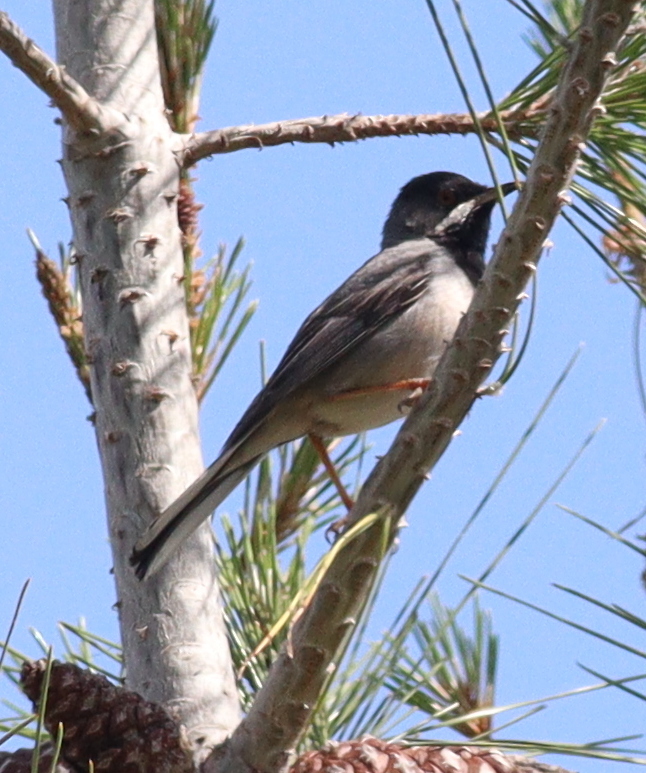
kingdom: Animalia
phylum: Chordata
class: Aves
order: Passeriformes
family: Sylviidae
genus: Sylvia
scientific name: Sylvia ruppeli
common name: Rüppell's warbler
